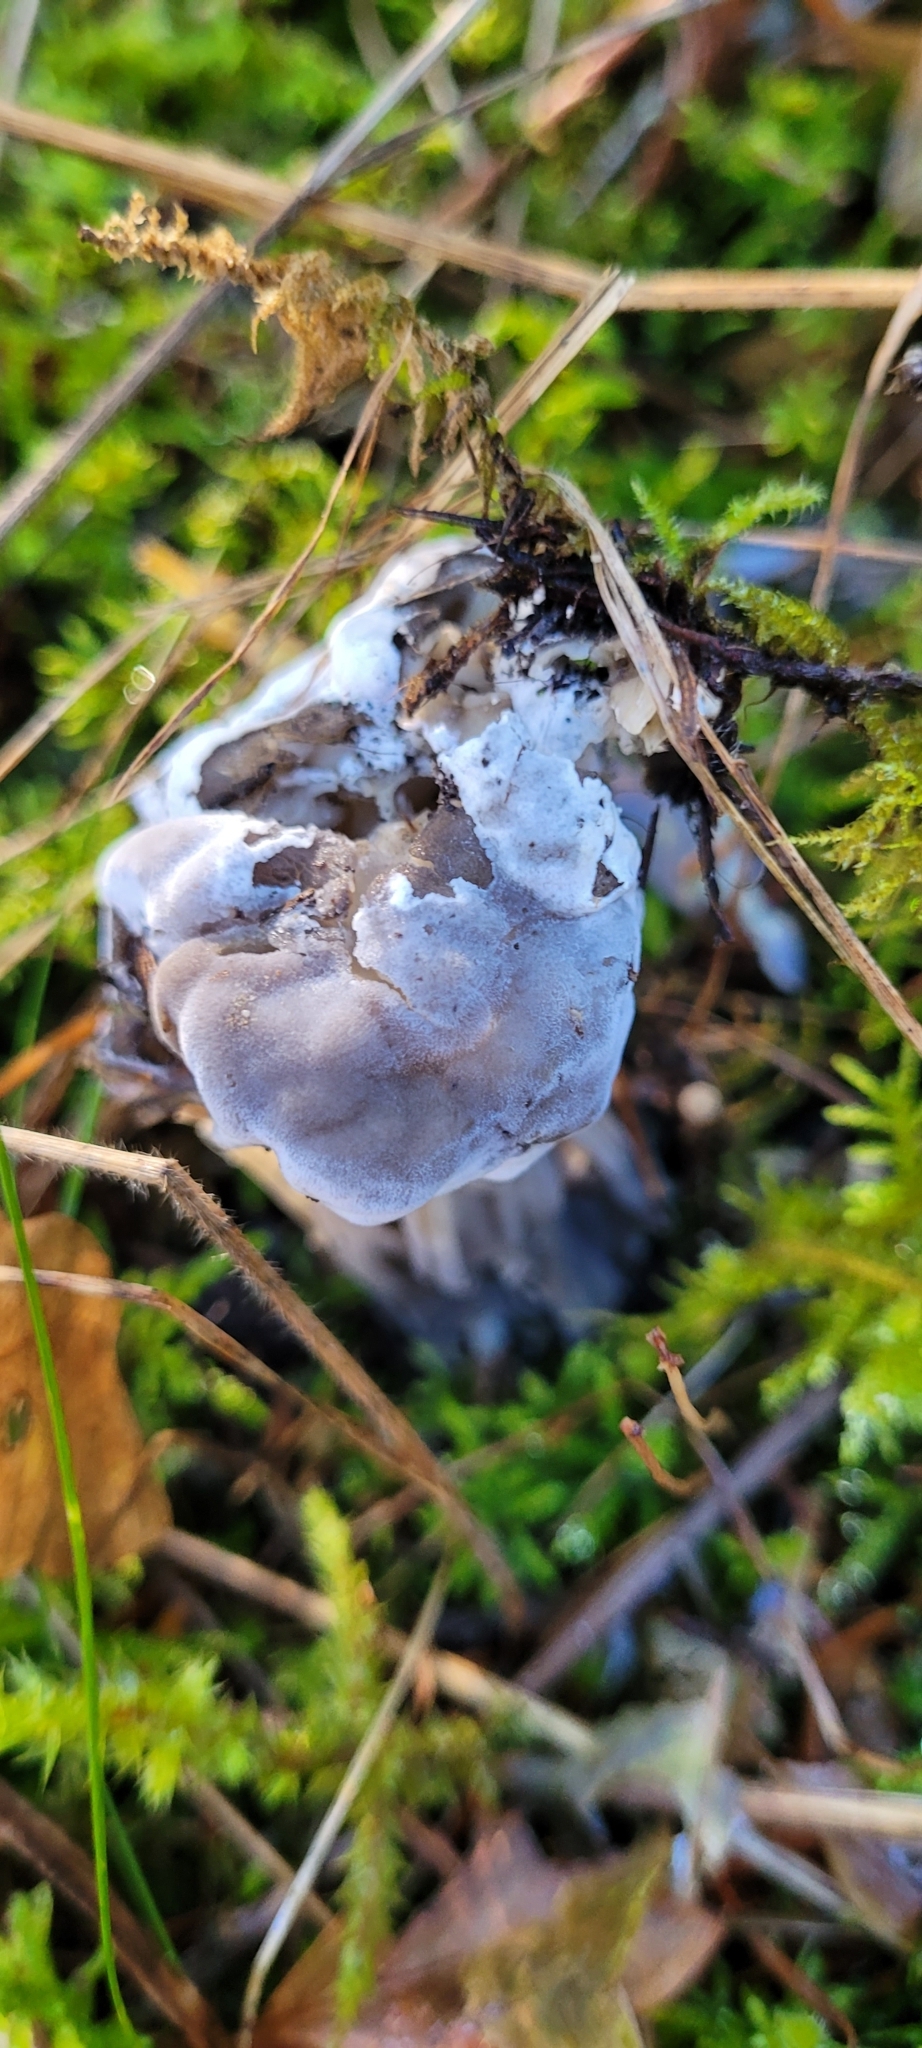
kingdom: Fungi
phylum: Ascomycota
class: Pezizomycetes
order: Pezizales
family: Helvellaceae
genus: Helvella
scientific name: Helvella vespertina
